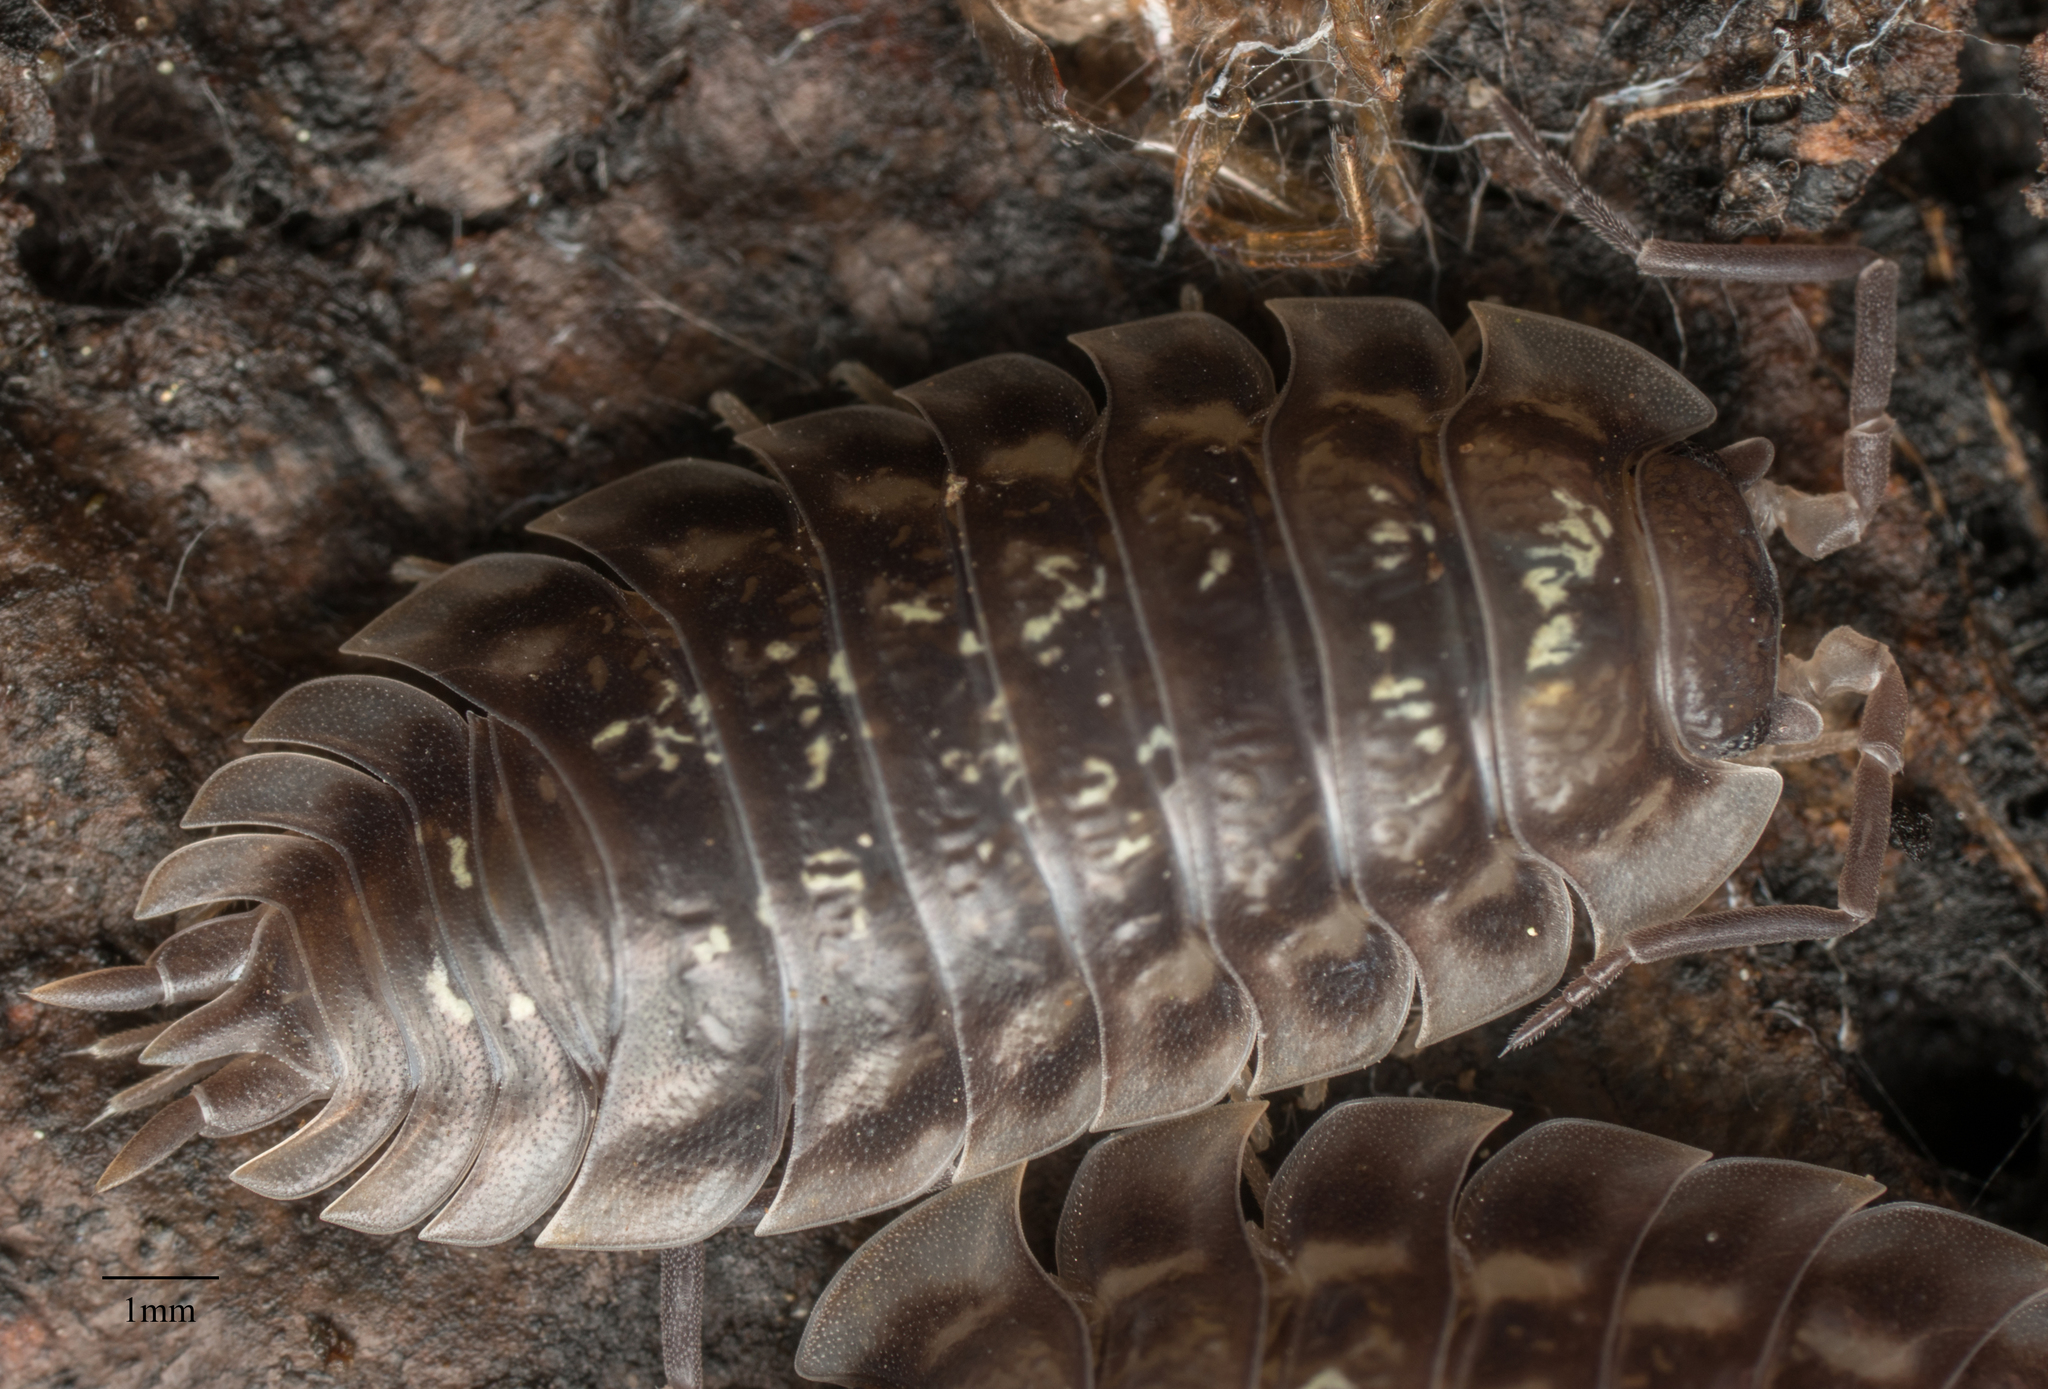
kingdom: Animalia
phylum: Arthropoda
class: Malacostraca
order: Isopoda
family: Oniscidae
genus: Oniscus
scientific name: Oniscus asellus
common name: Common shiny woodlouse
